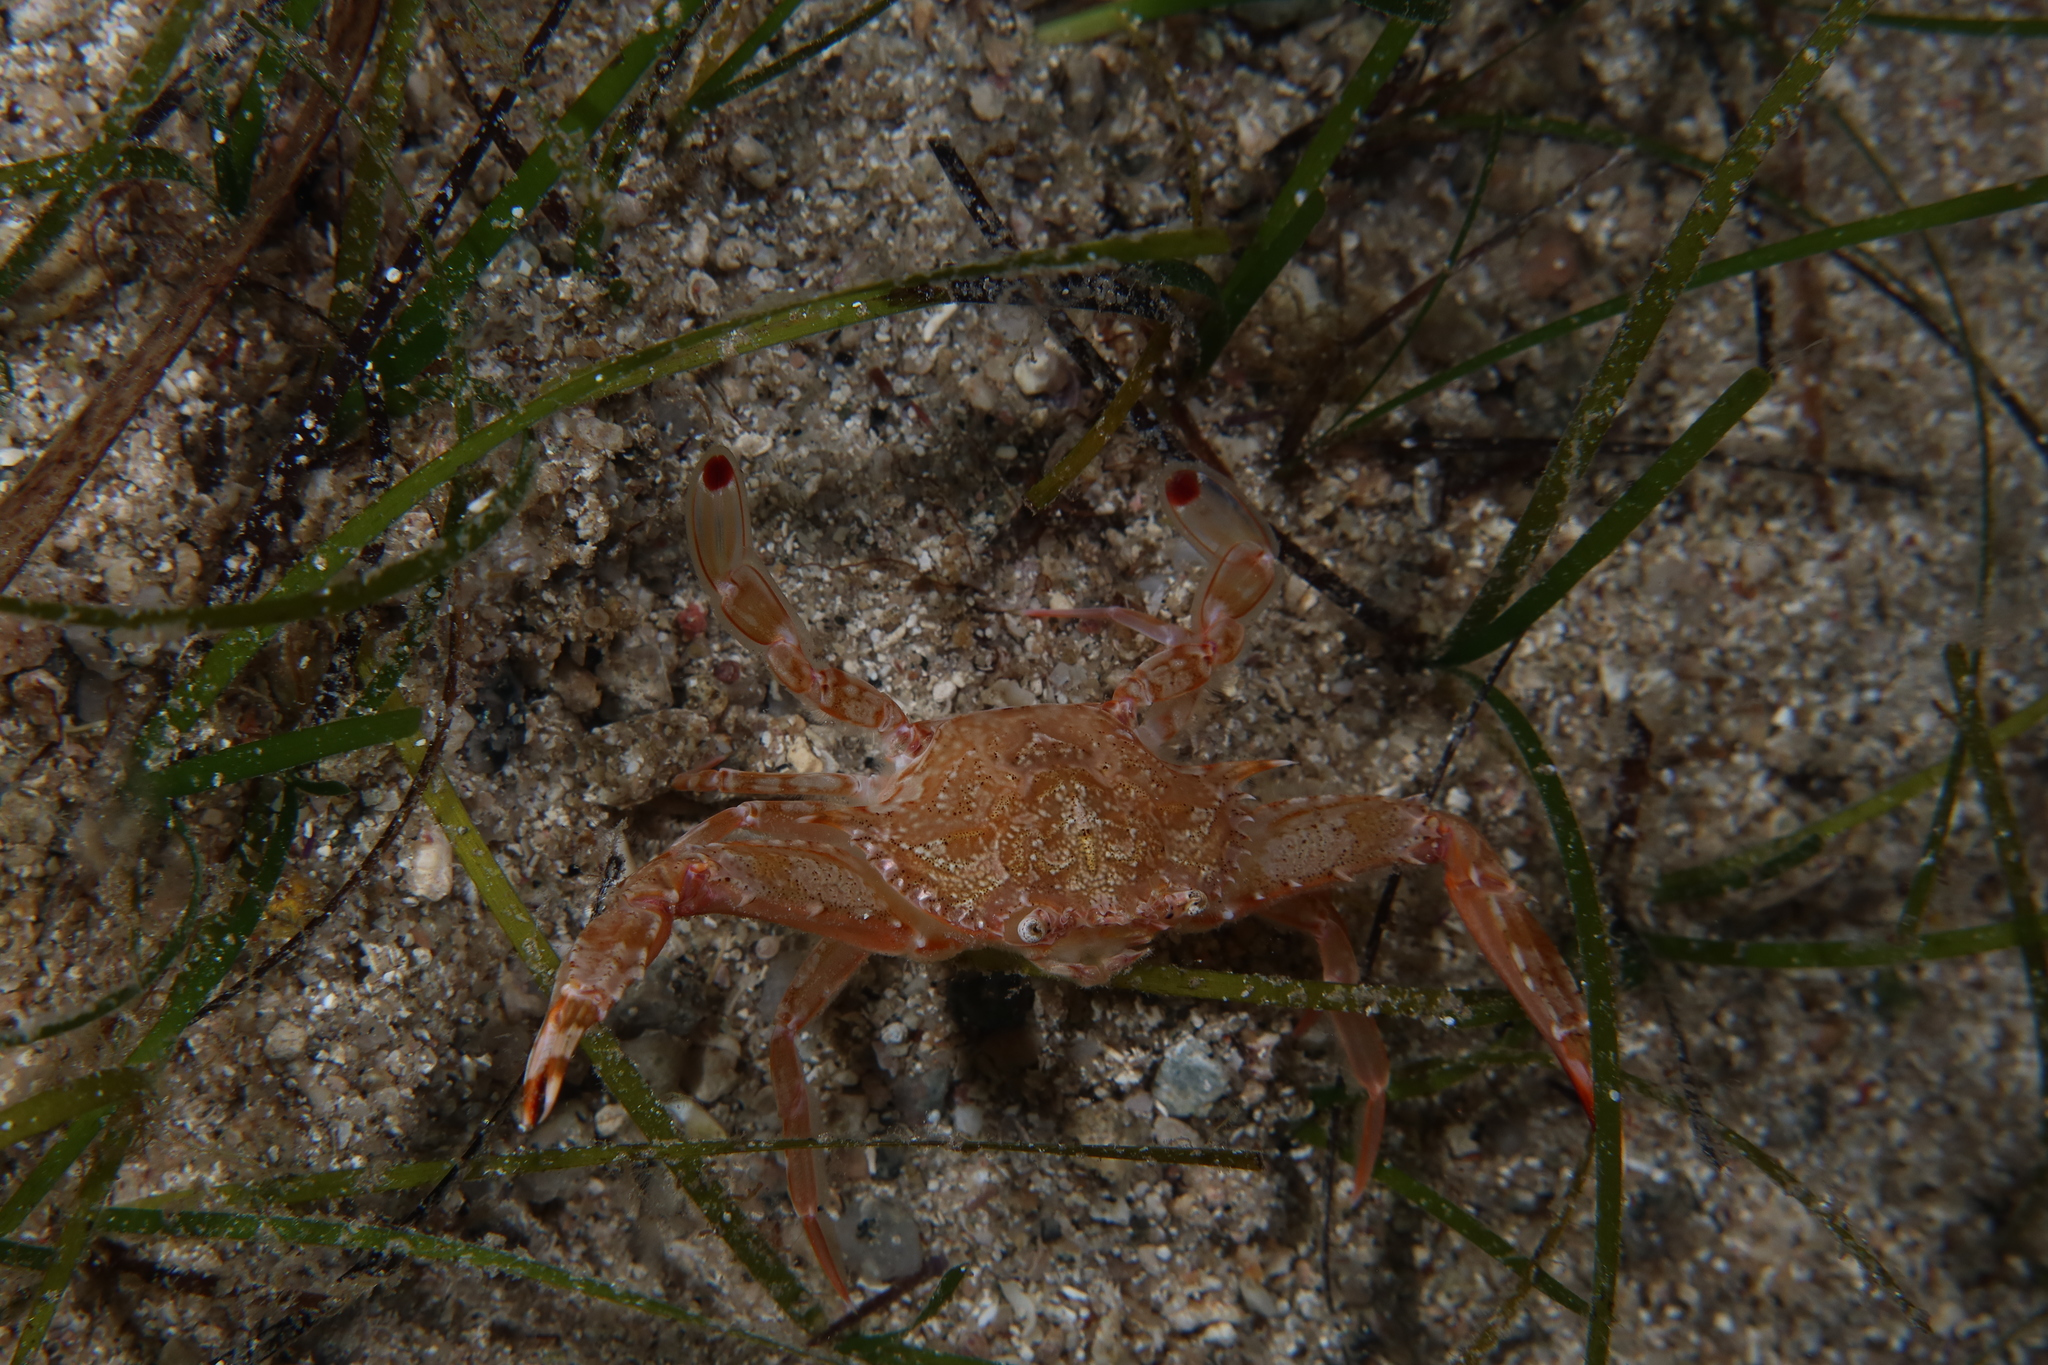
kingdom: Animalia
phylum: Arthropoda
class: Malacostraca
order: Decapoda
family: Portunidae
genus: Achelous
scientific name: Achelous hastatus
